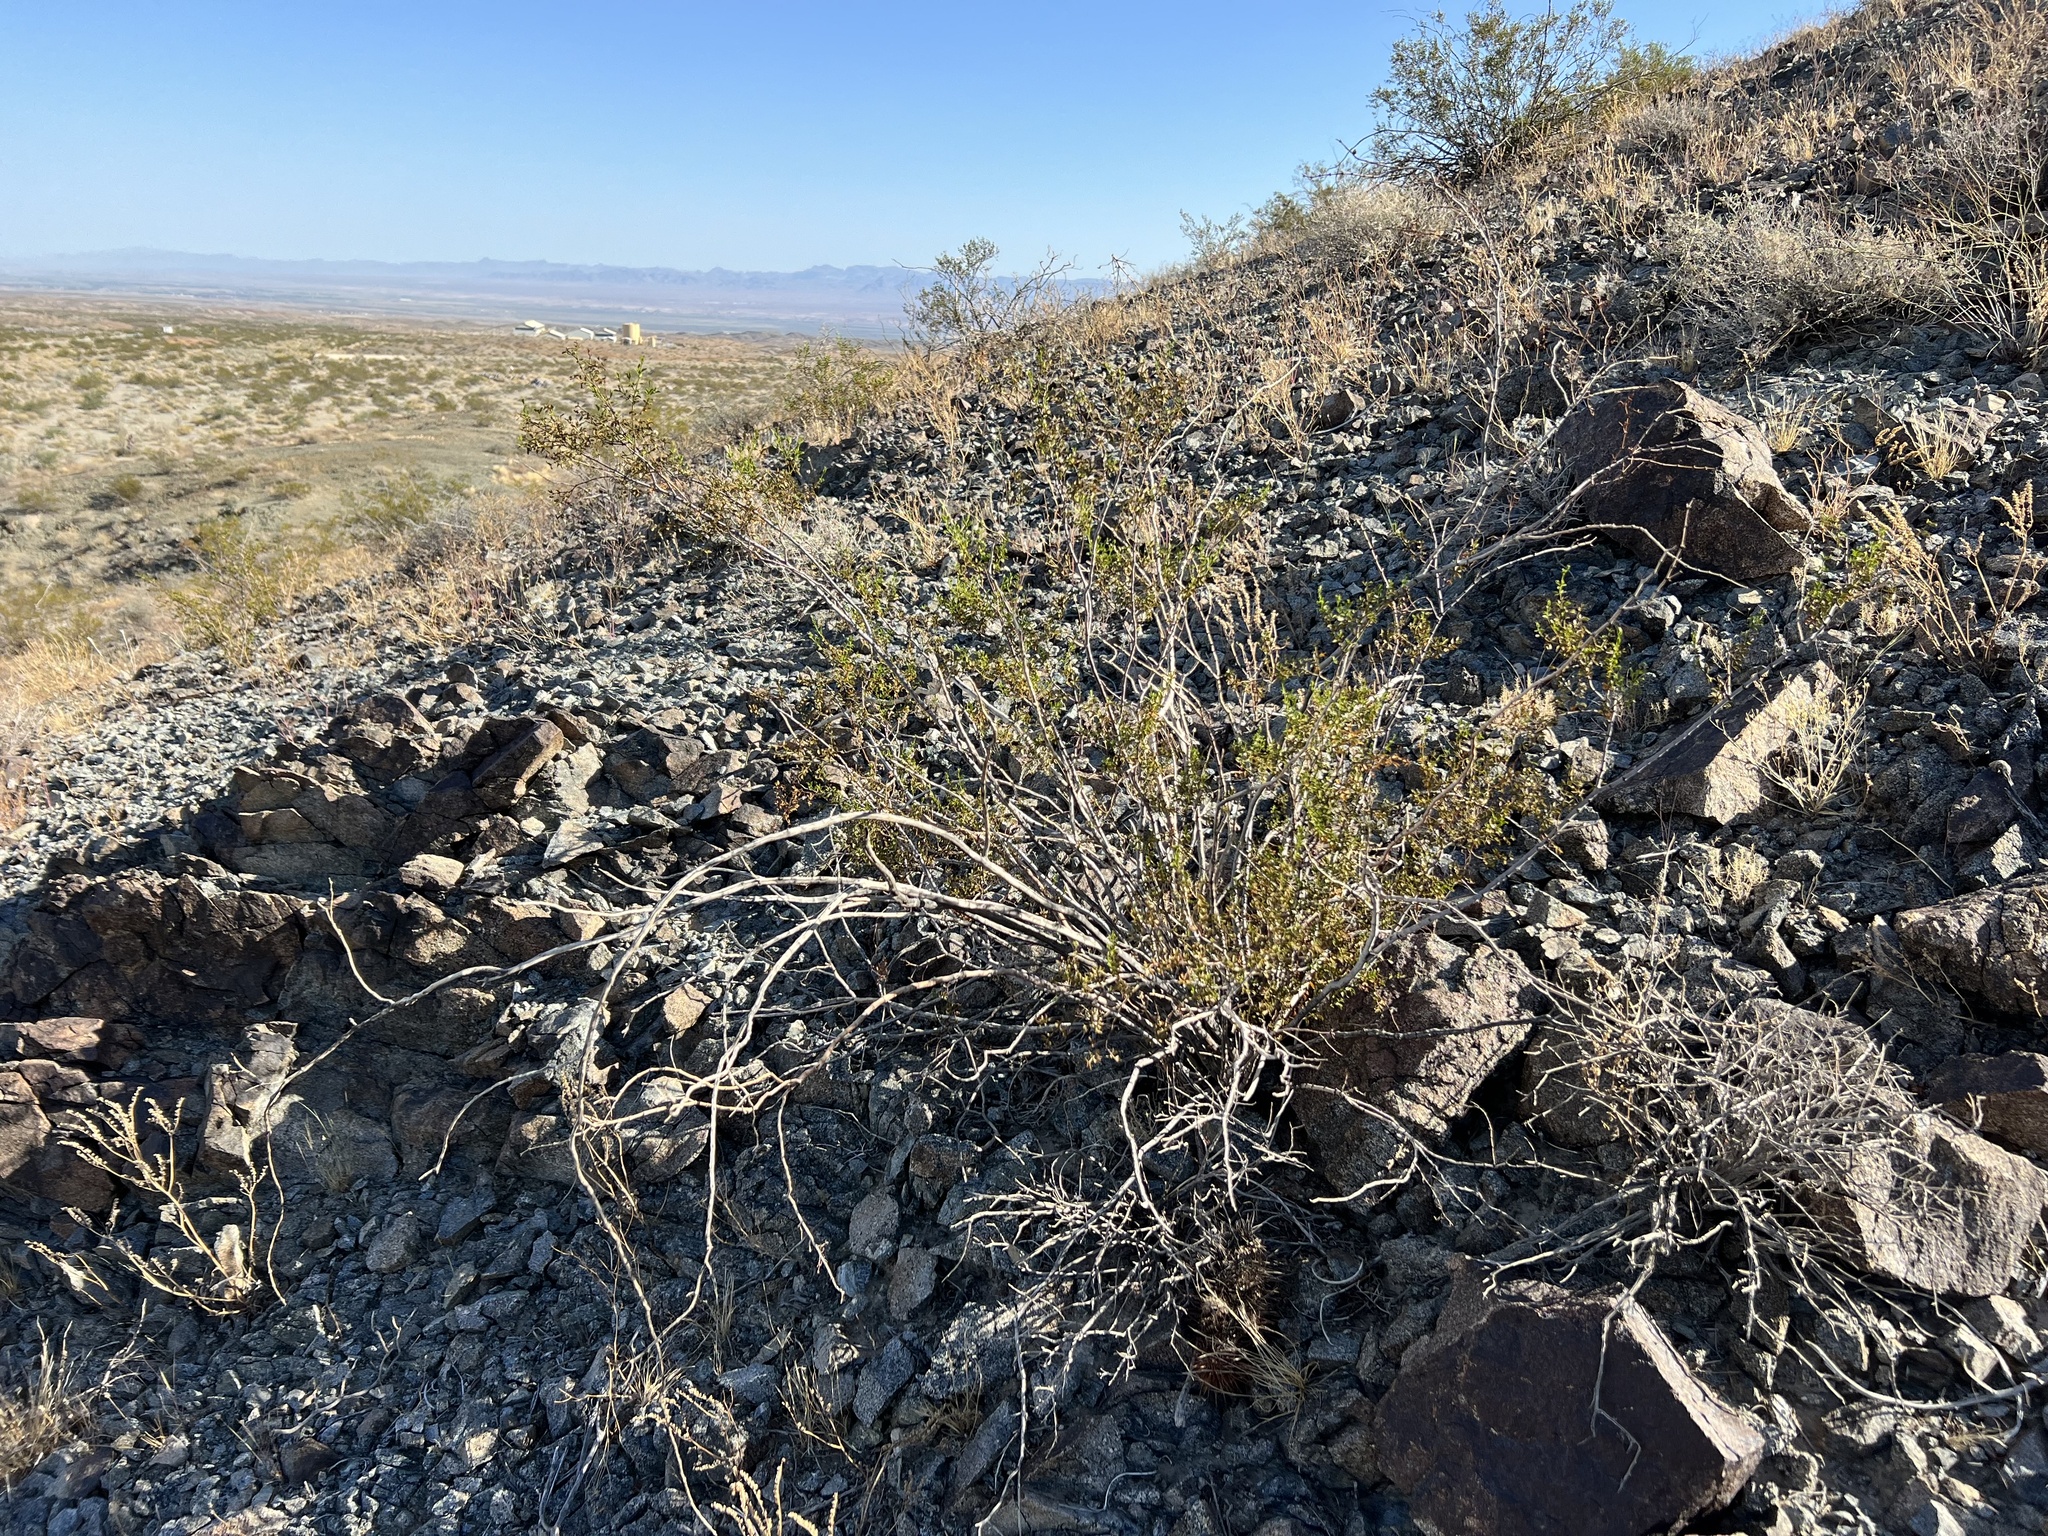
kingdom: Plantae
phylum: Tracheophyta
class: Magnoliopsida
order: Zygophyllales
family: Zygophyllaceae
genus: Larrea
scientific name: Larrea tridentata
